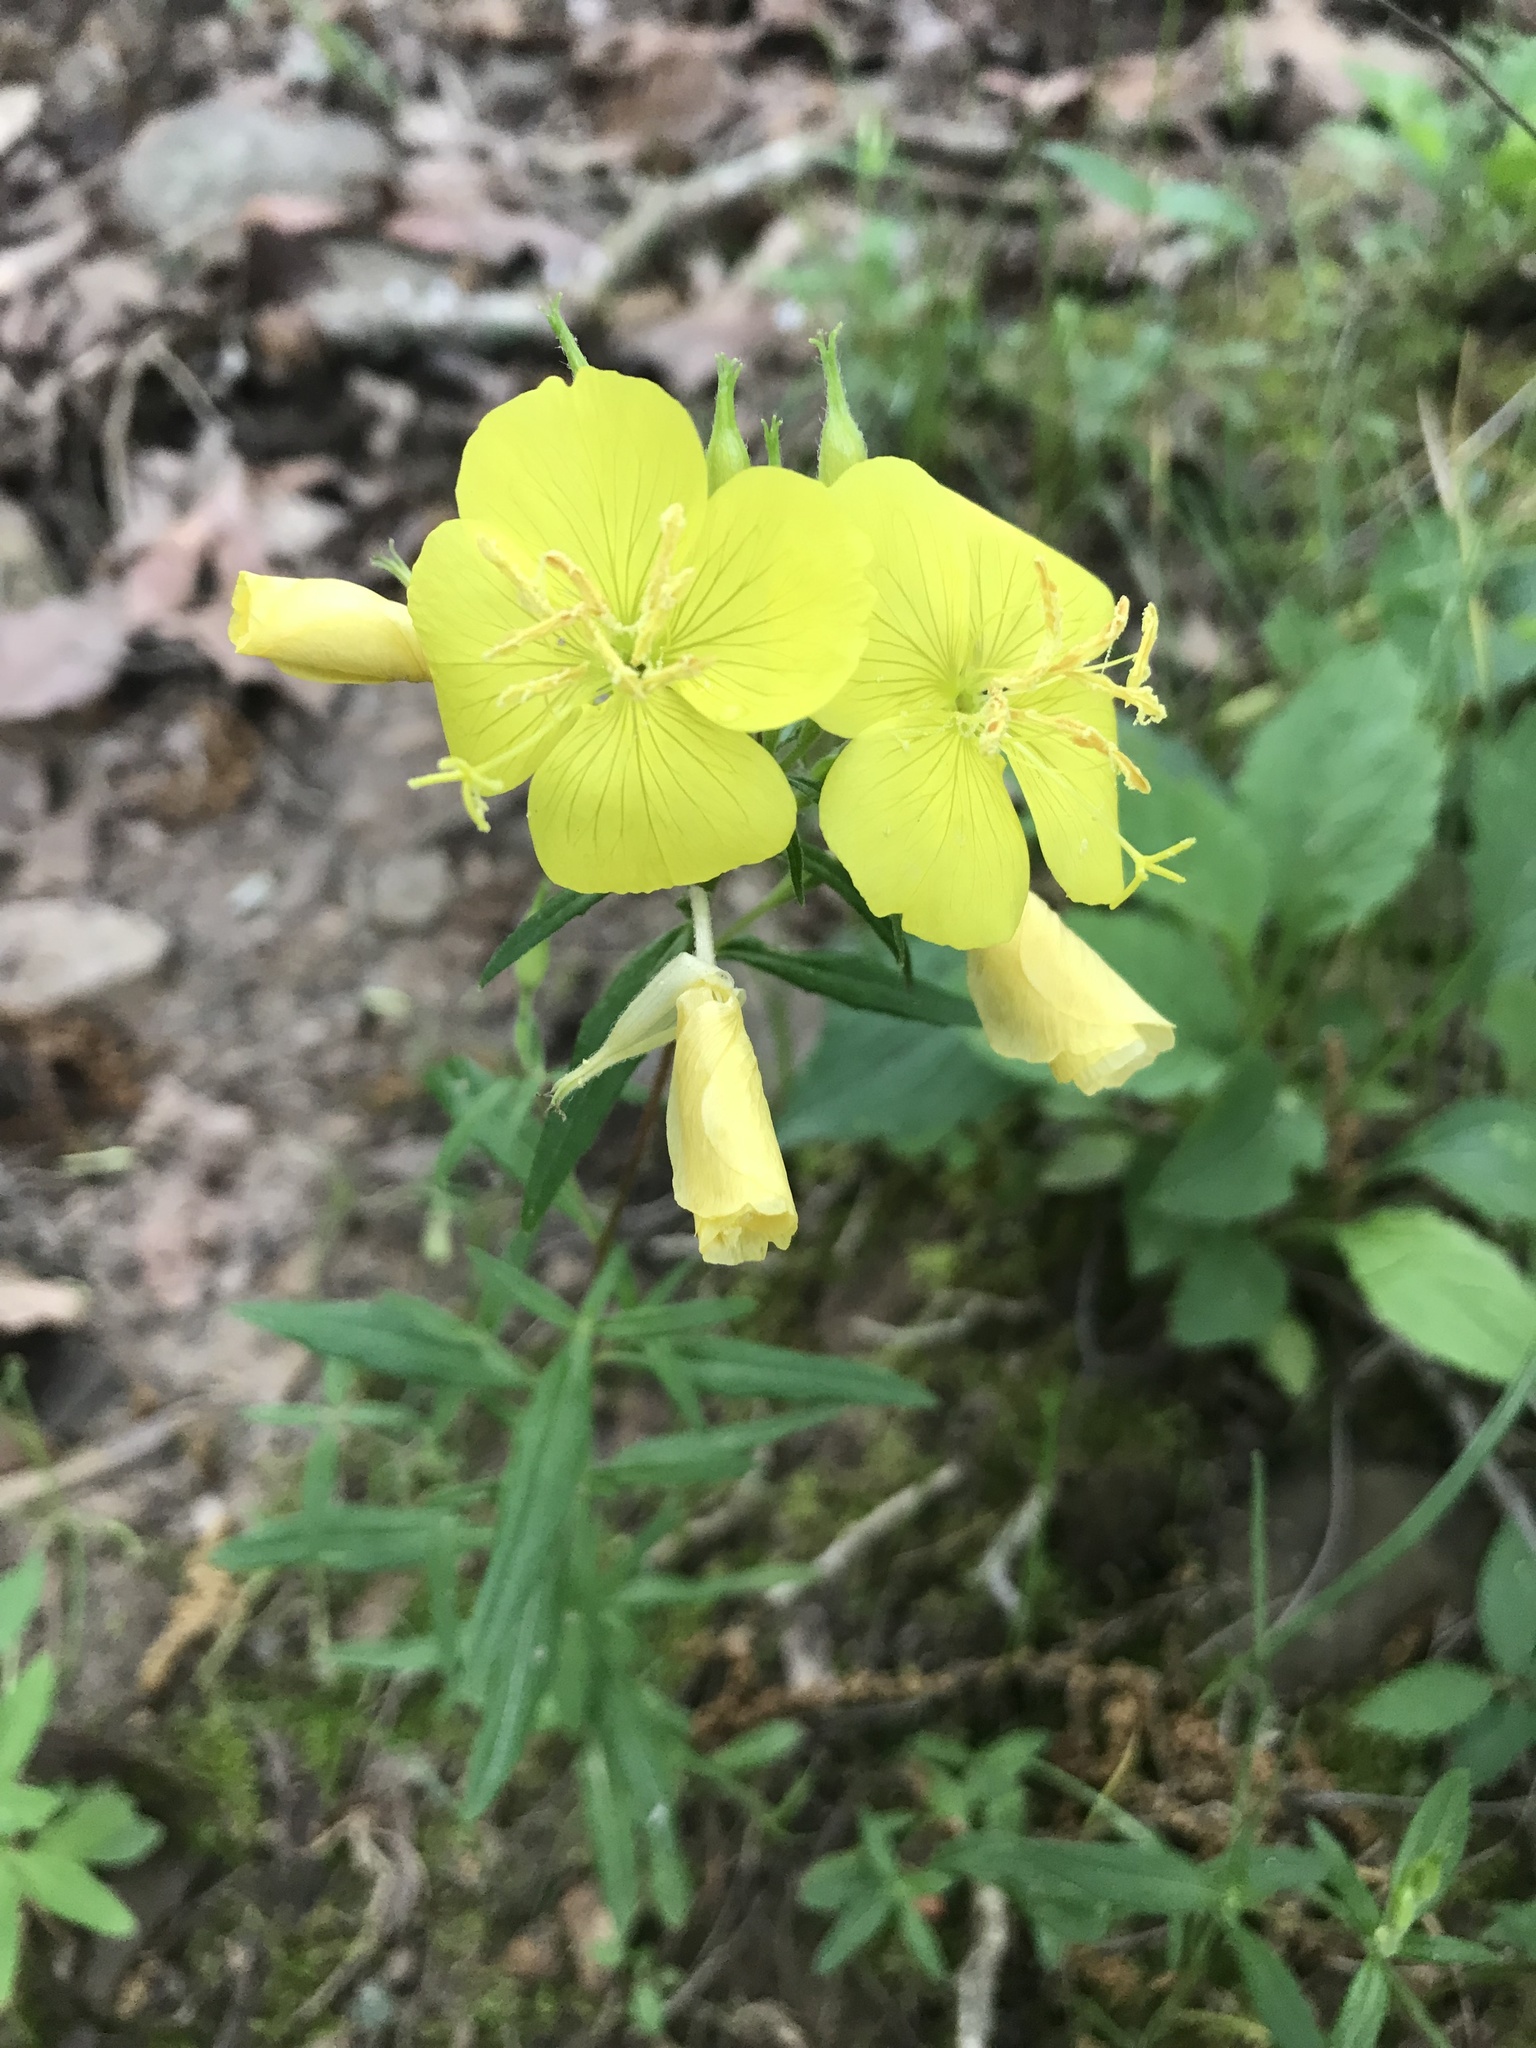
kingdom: Plantae
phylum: Tracheophyta
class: Magnoliopsida
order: Myrtales
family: Onagraceae
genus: Oenothera
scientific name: Oenothera fruticosa
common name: Southern sundrops
